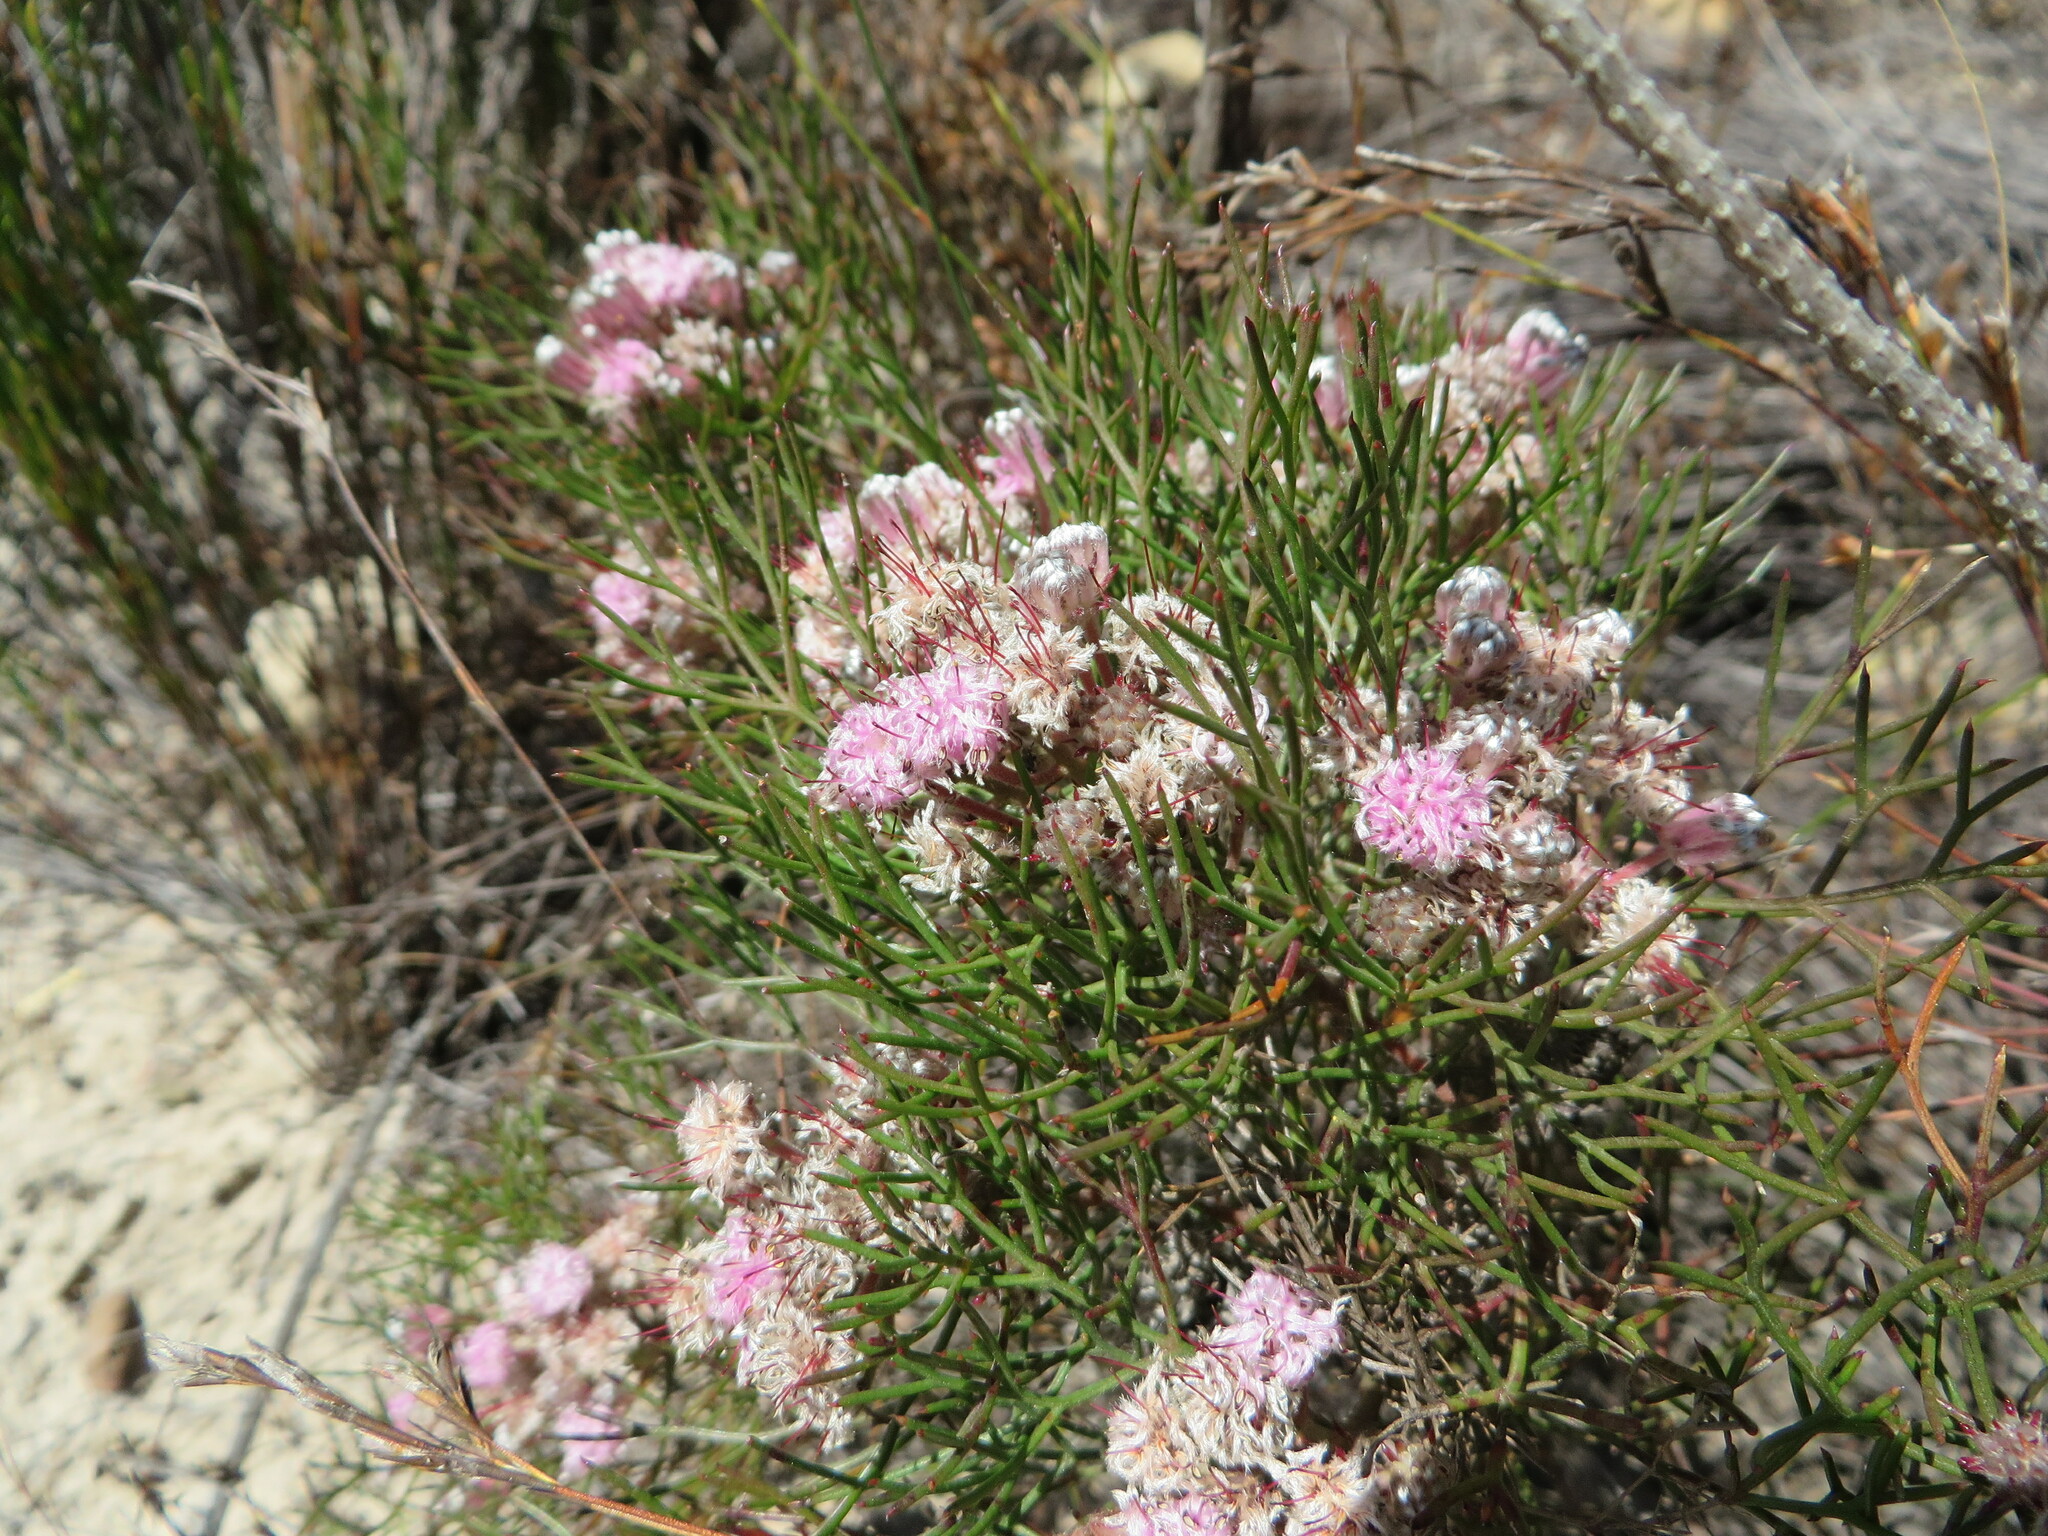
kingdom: Plantae
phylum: Tracheophyta
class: Magnoliopsida
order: Proteales
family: Proteaceae
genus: Serruria
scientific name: Serruria fasciflora
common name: Common pin spiderhead
